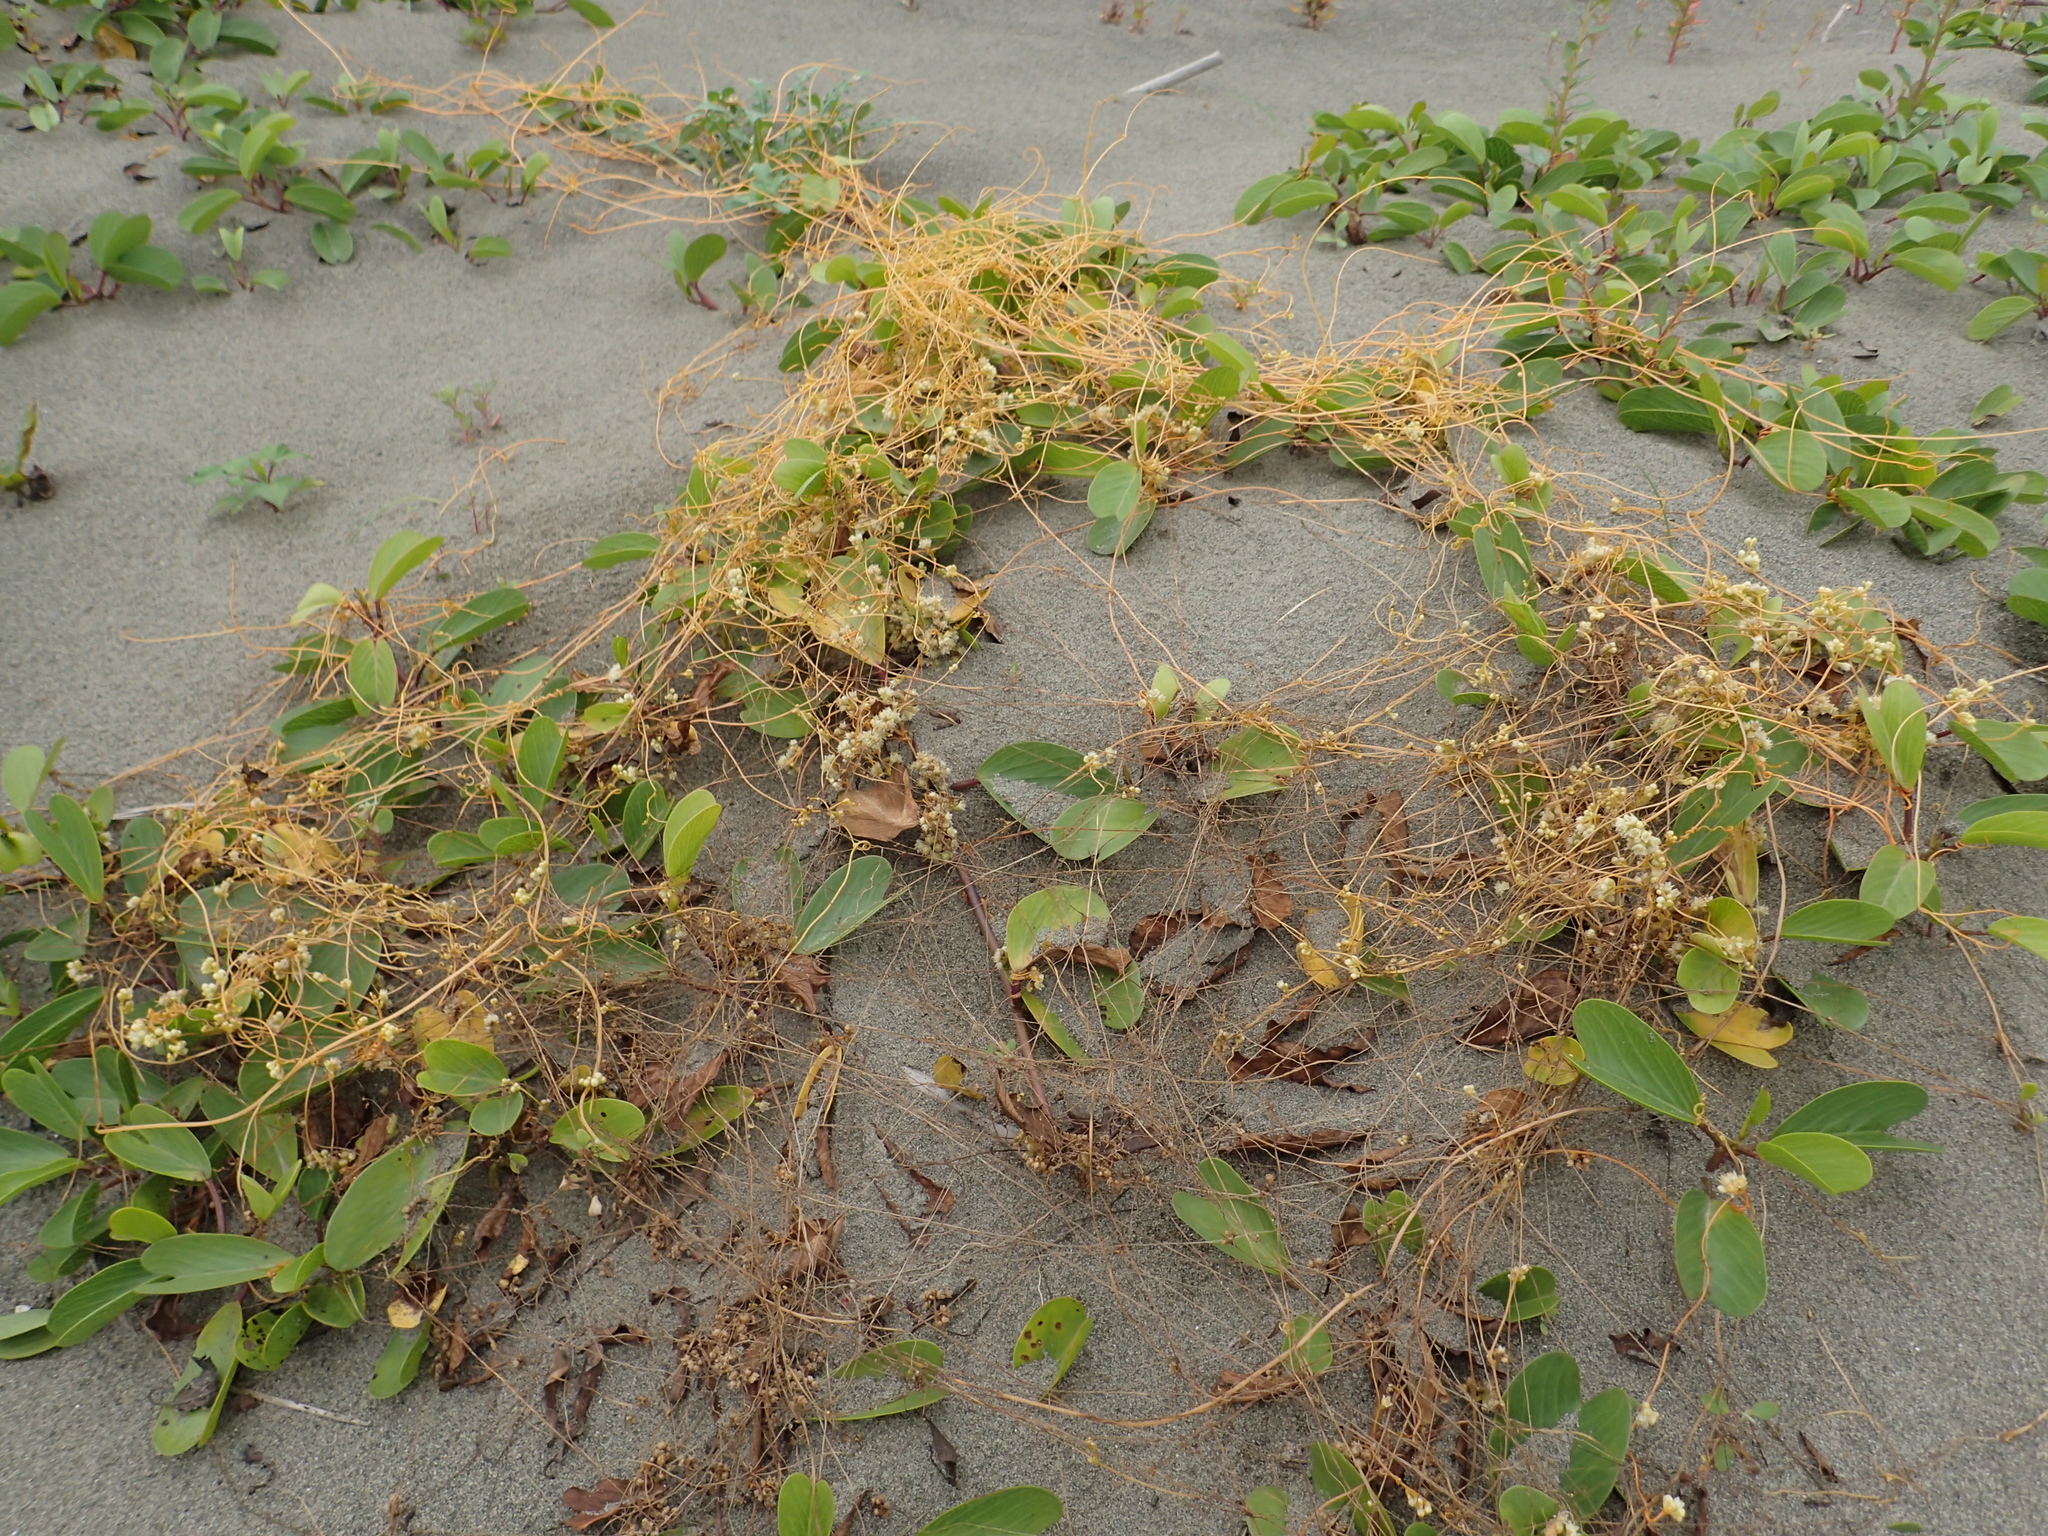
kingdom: Plantae
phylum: Tracheophyta
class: Magnoliopsida
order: Solanales
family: Convolvulaceae
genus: Cuscuta
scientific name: Cuscuta campestris
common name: Yellow dodder
